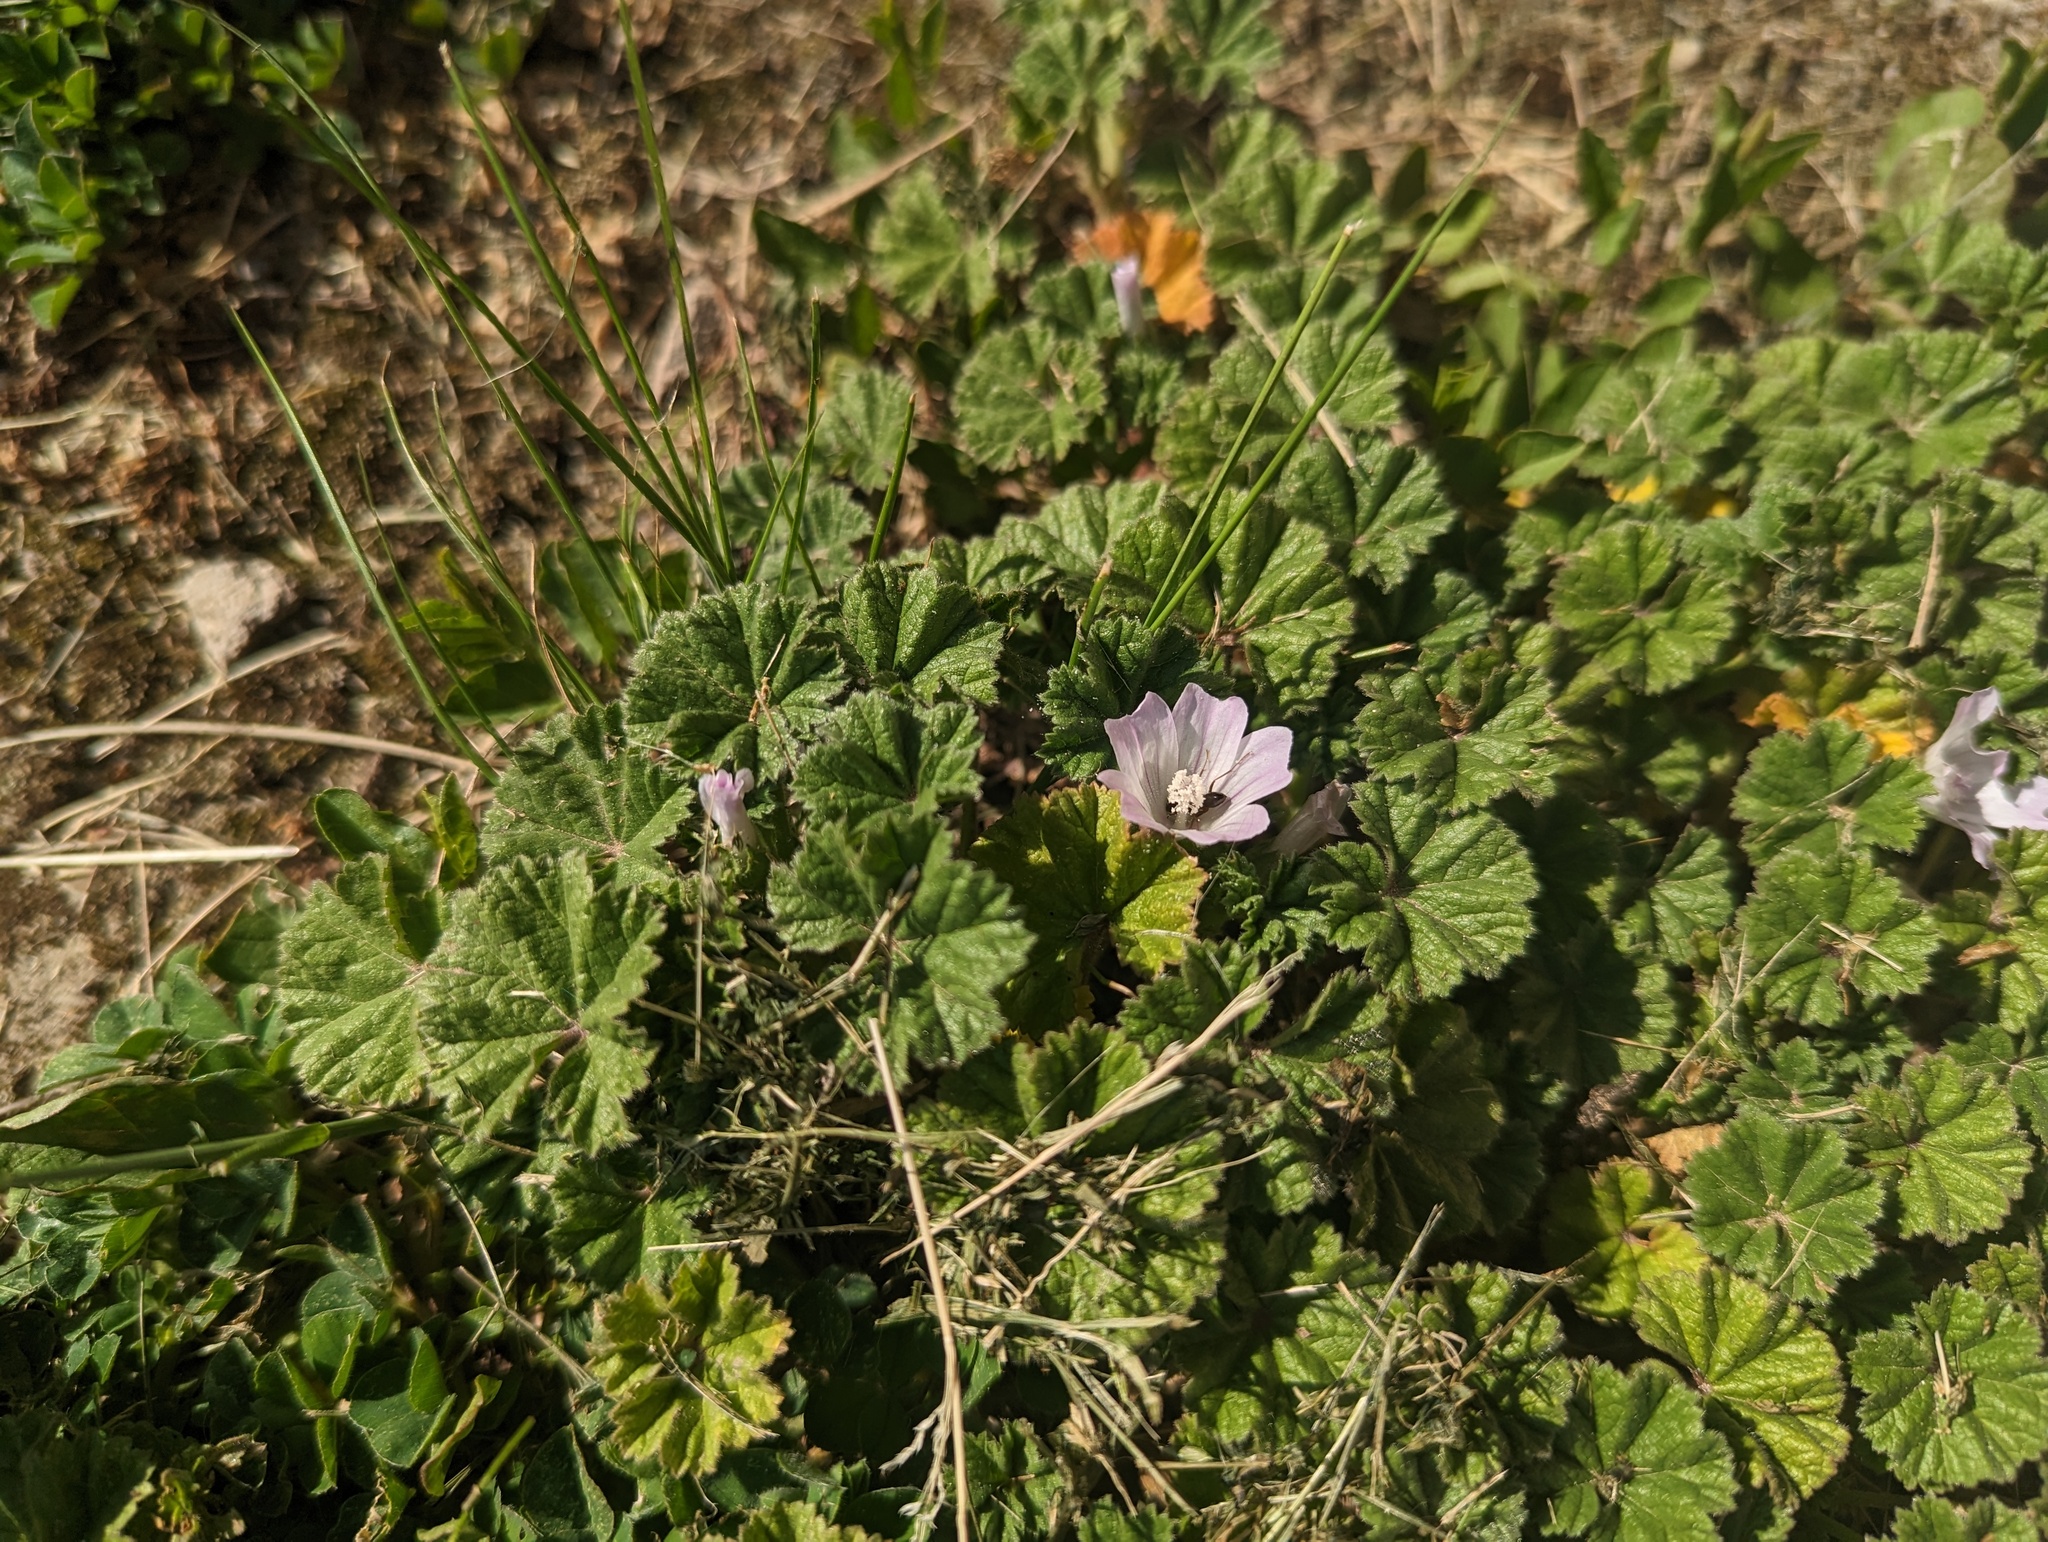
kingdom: Plantae
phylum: Tracheophyta
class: Magnoliopsida
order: Malvales
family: Malvaceae
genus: Malva
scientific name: Malva neglecta
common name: Common mallow
